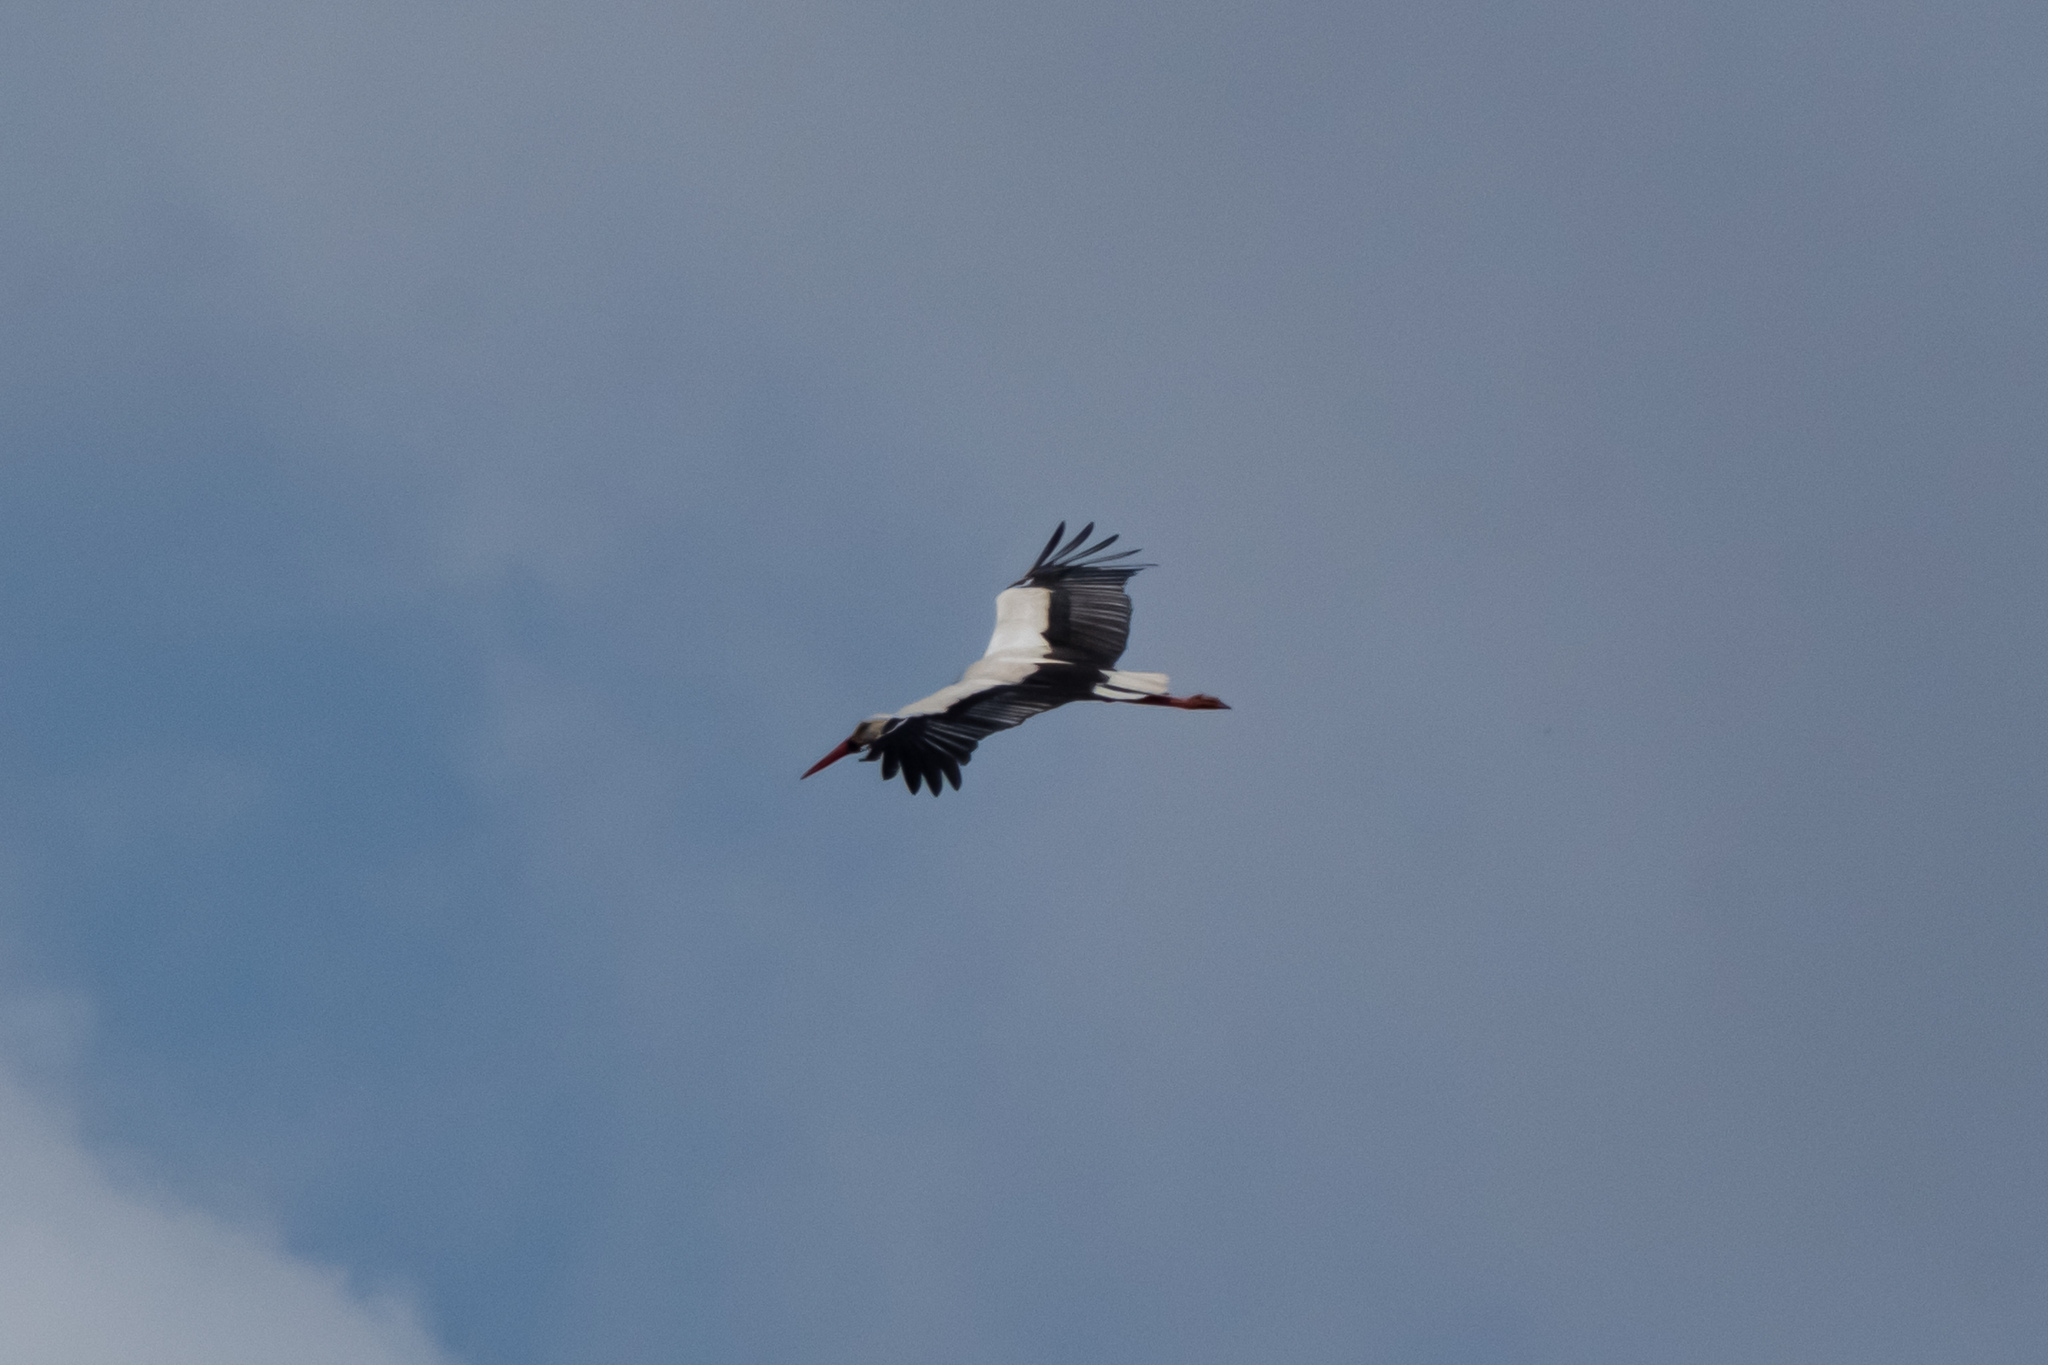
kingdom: Animalia
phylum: Chordata
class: Aves
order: Ciconiiformes
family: Ciconiidae
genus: Ciconia
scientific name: Ciconia ciconia
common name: White stork
